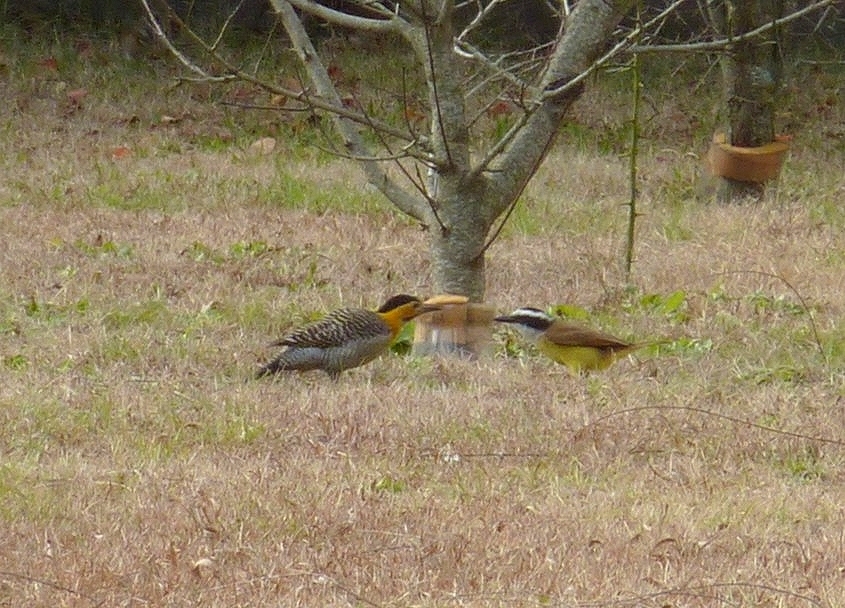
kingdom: Animalia
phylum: Chordata
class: Aves
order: Passeriformes
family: Tyrannidae
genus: Pitangus
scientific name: Pitangus sulphuratus
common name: Great kiskadee
